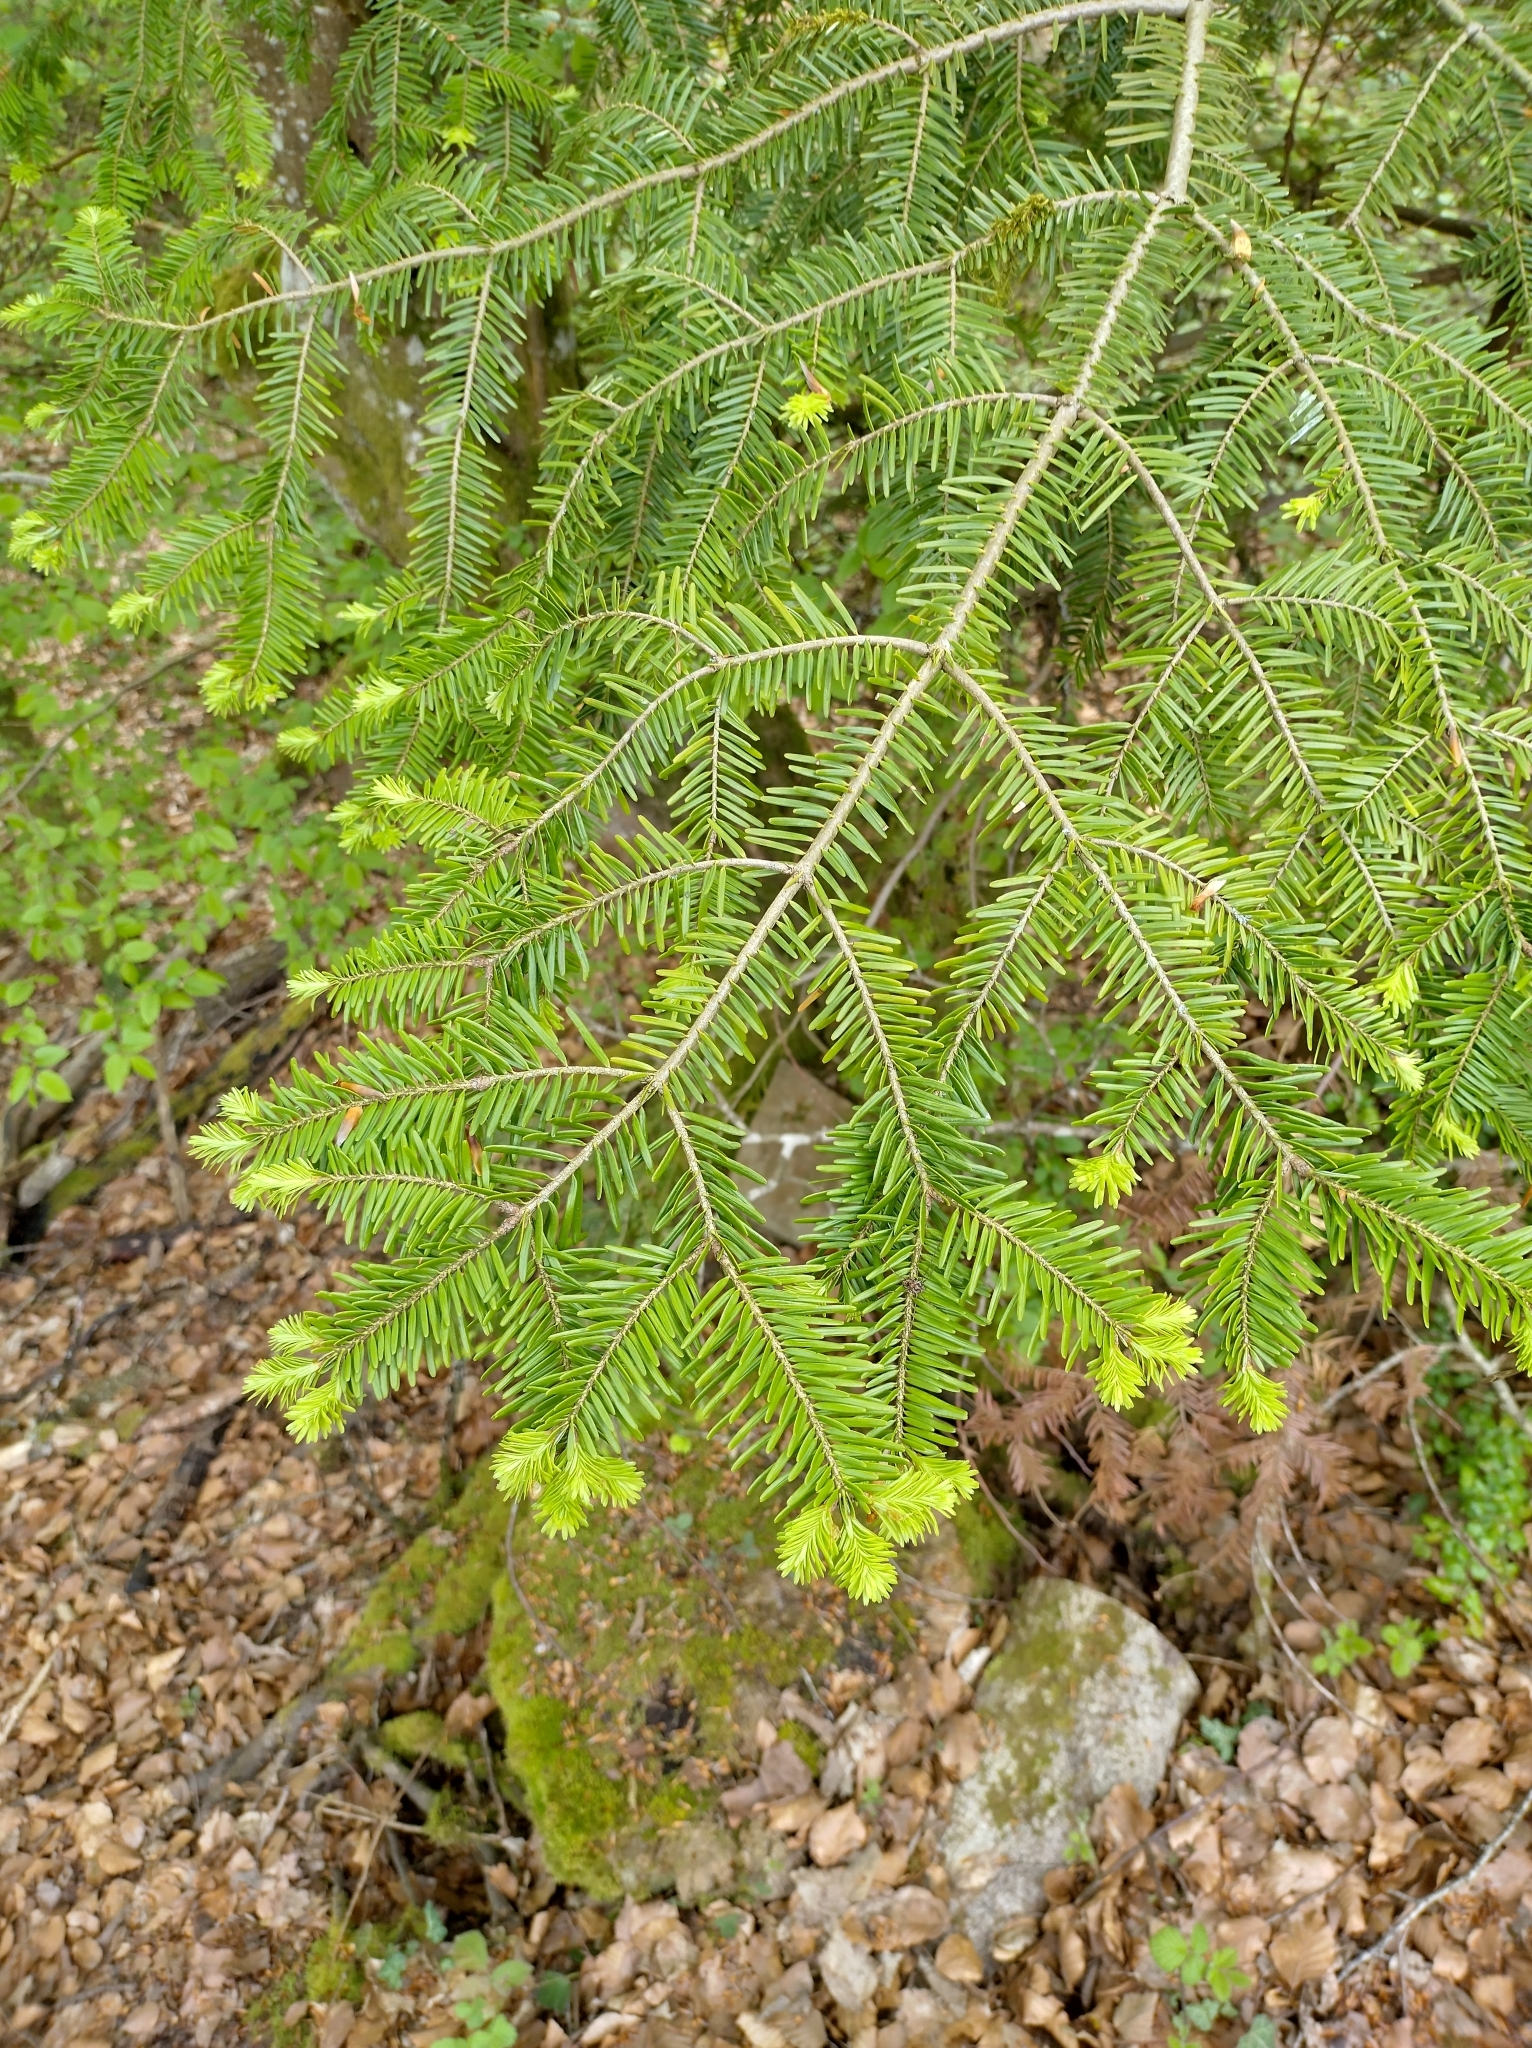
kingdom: Plantae
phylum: Tracheophyta
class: Pinopsida
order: Pinales
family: Pinaceae
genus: Abies
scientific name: Abies alba
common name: Silver fir
